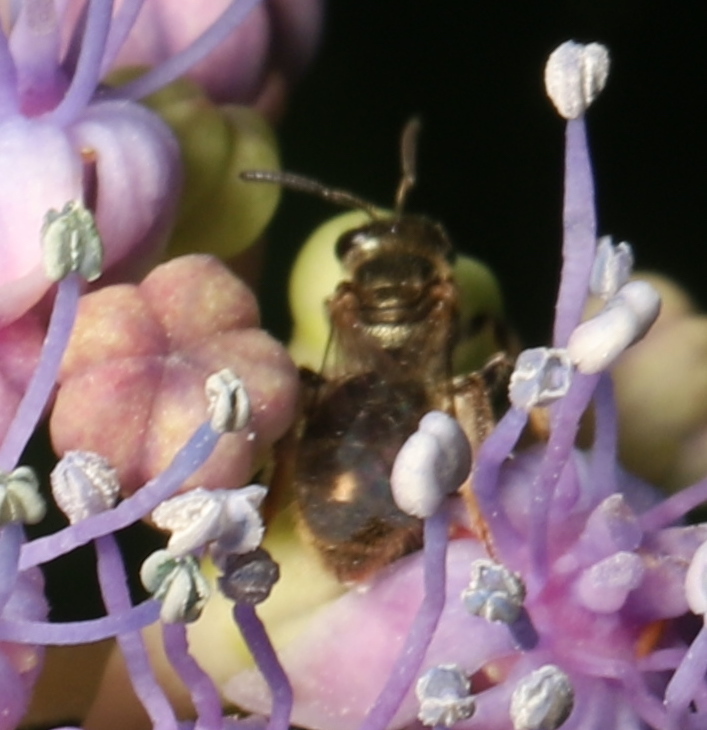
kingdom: Animalia
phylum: Arthropoda
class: Insecta
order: Hymenoptera
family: Halictidae
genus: Dialictus
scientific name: Dialictus
